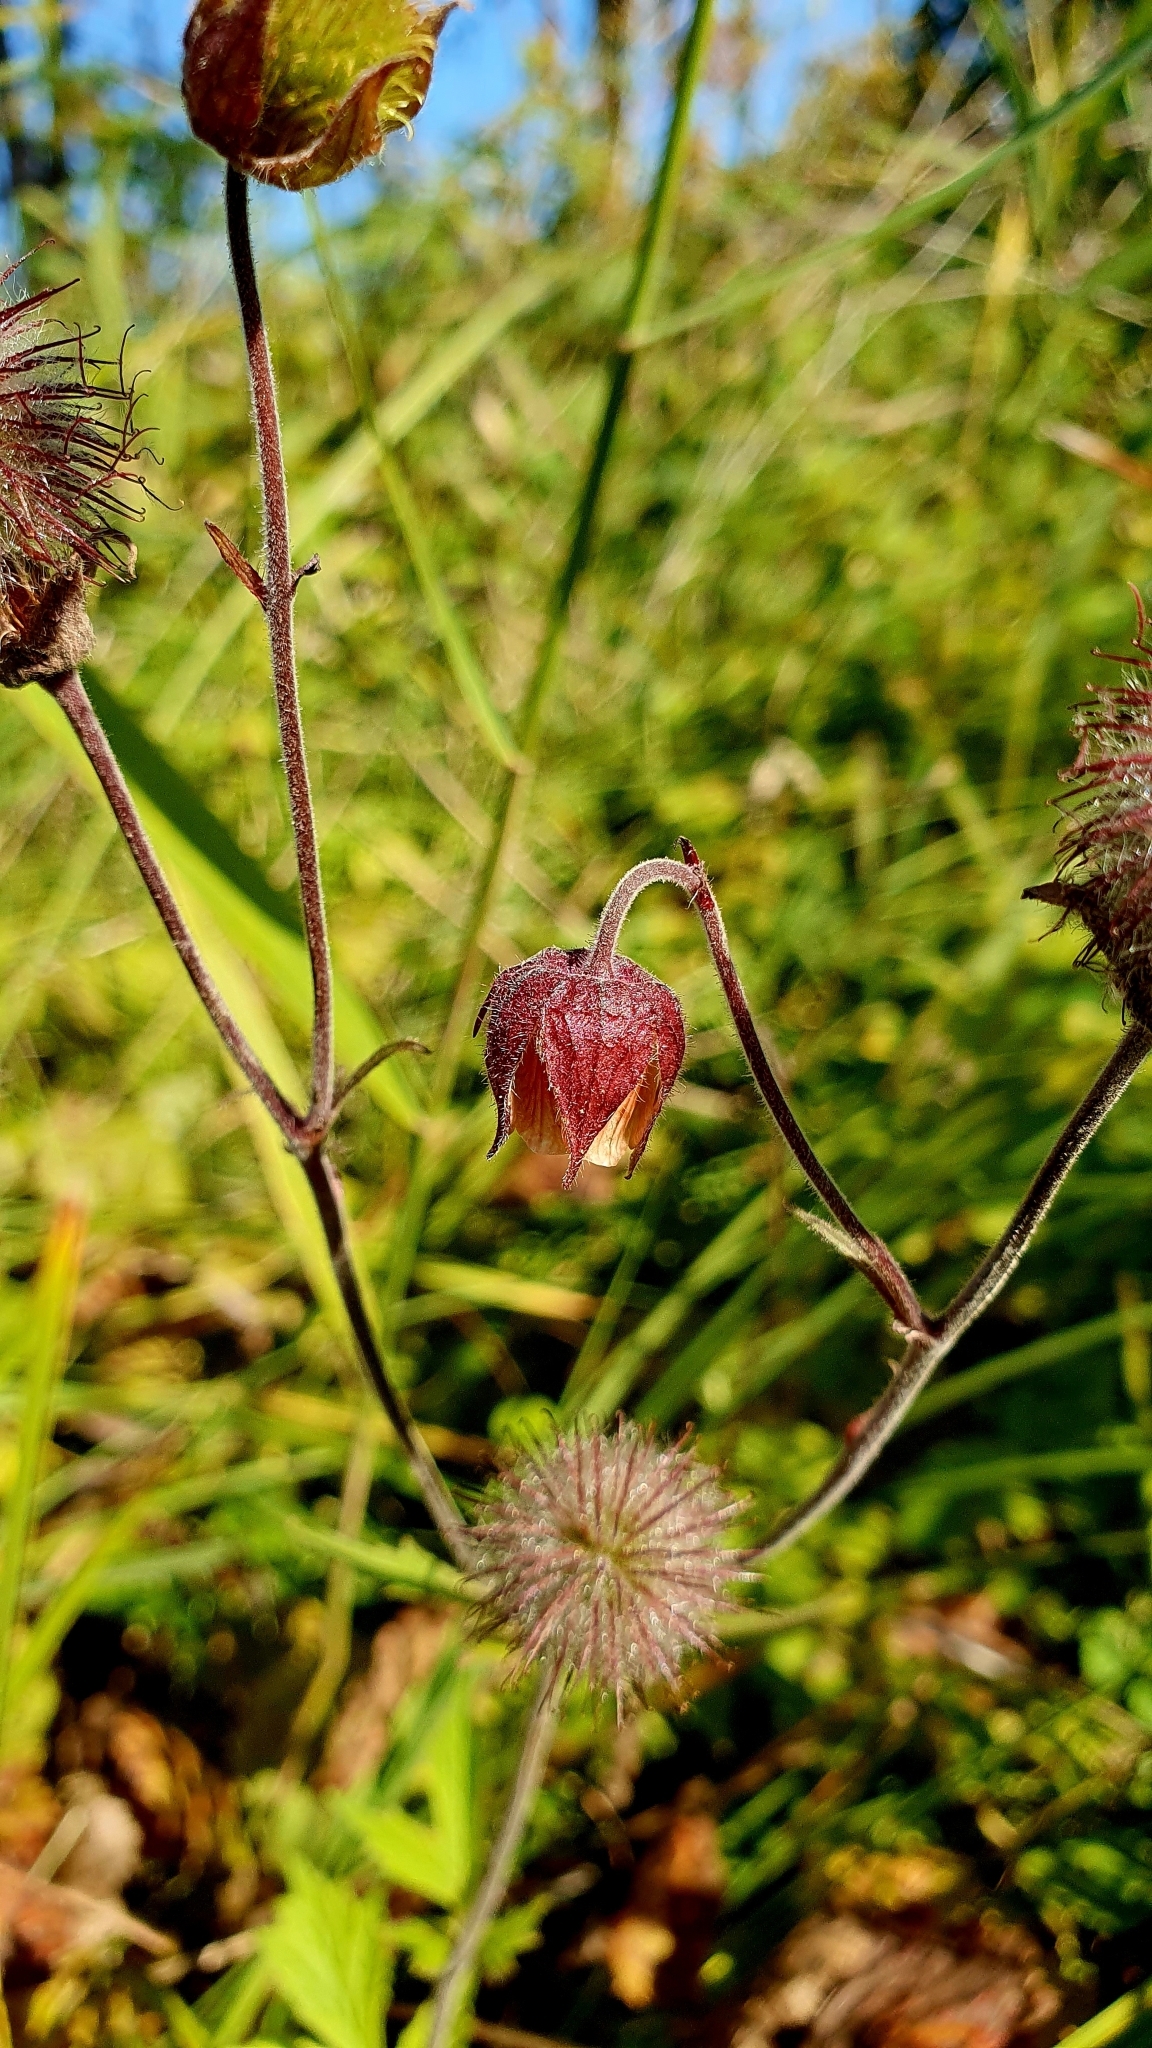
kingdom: Plantae
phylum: Tracheophyta
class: Magnoliopsida
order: Rosales
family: Rosaceae
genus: Geum
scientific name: Geum rivale
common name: Water avens
